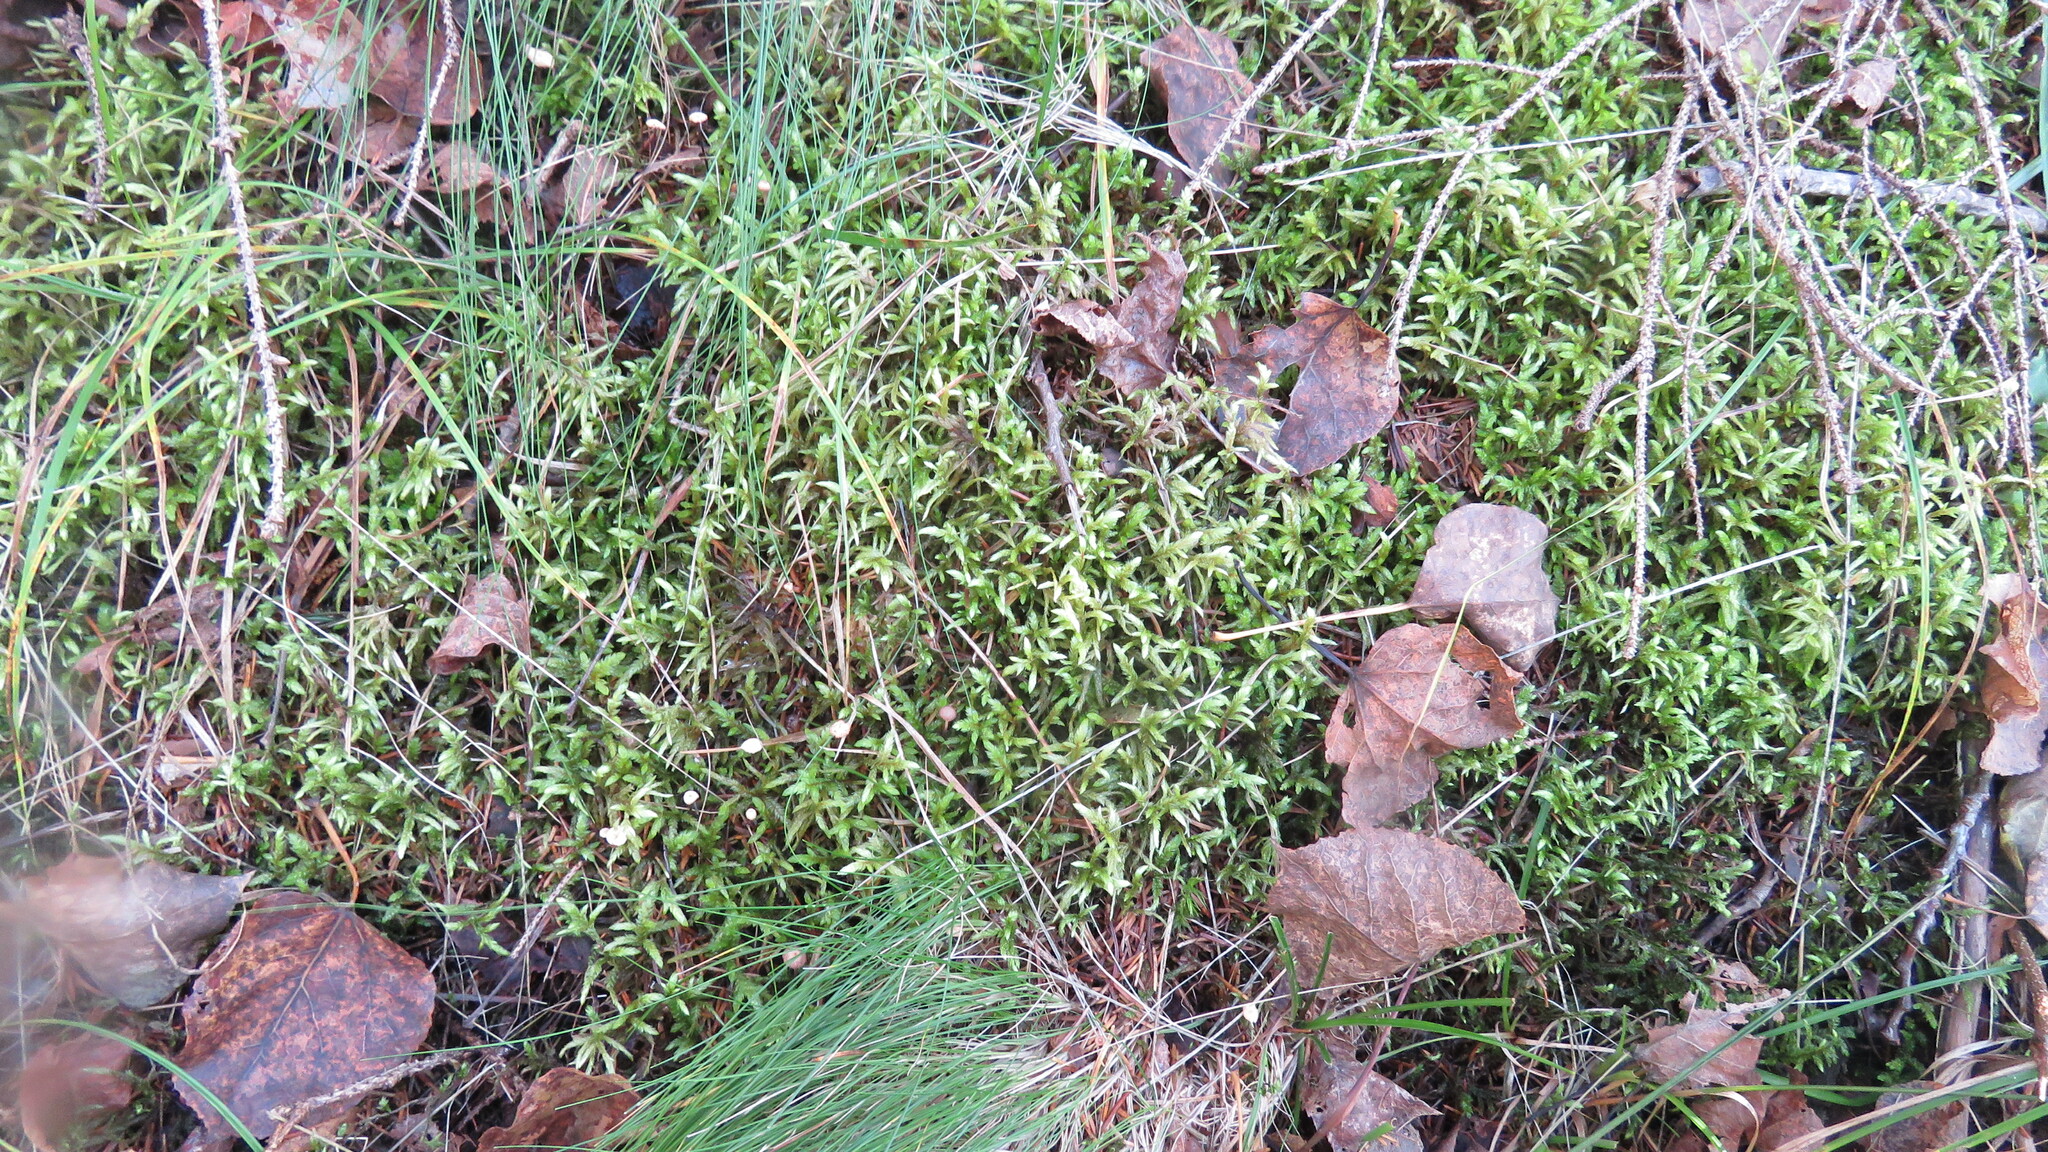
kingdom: Plantae
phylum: Bryophyta
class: Bryopsida
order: Hypnales
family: Hylocomiaceae
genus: Pleurozium
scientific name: Pleurozium schreberi
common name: Red-stemmed feather moss
